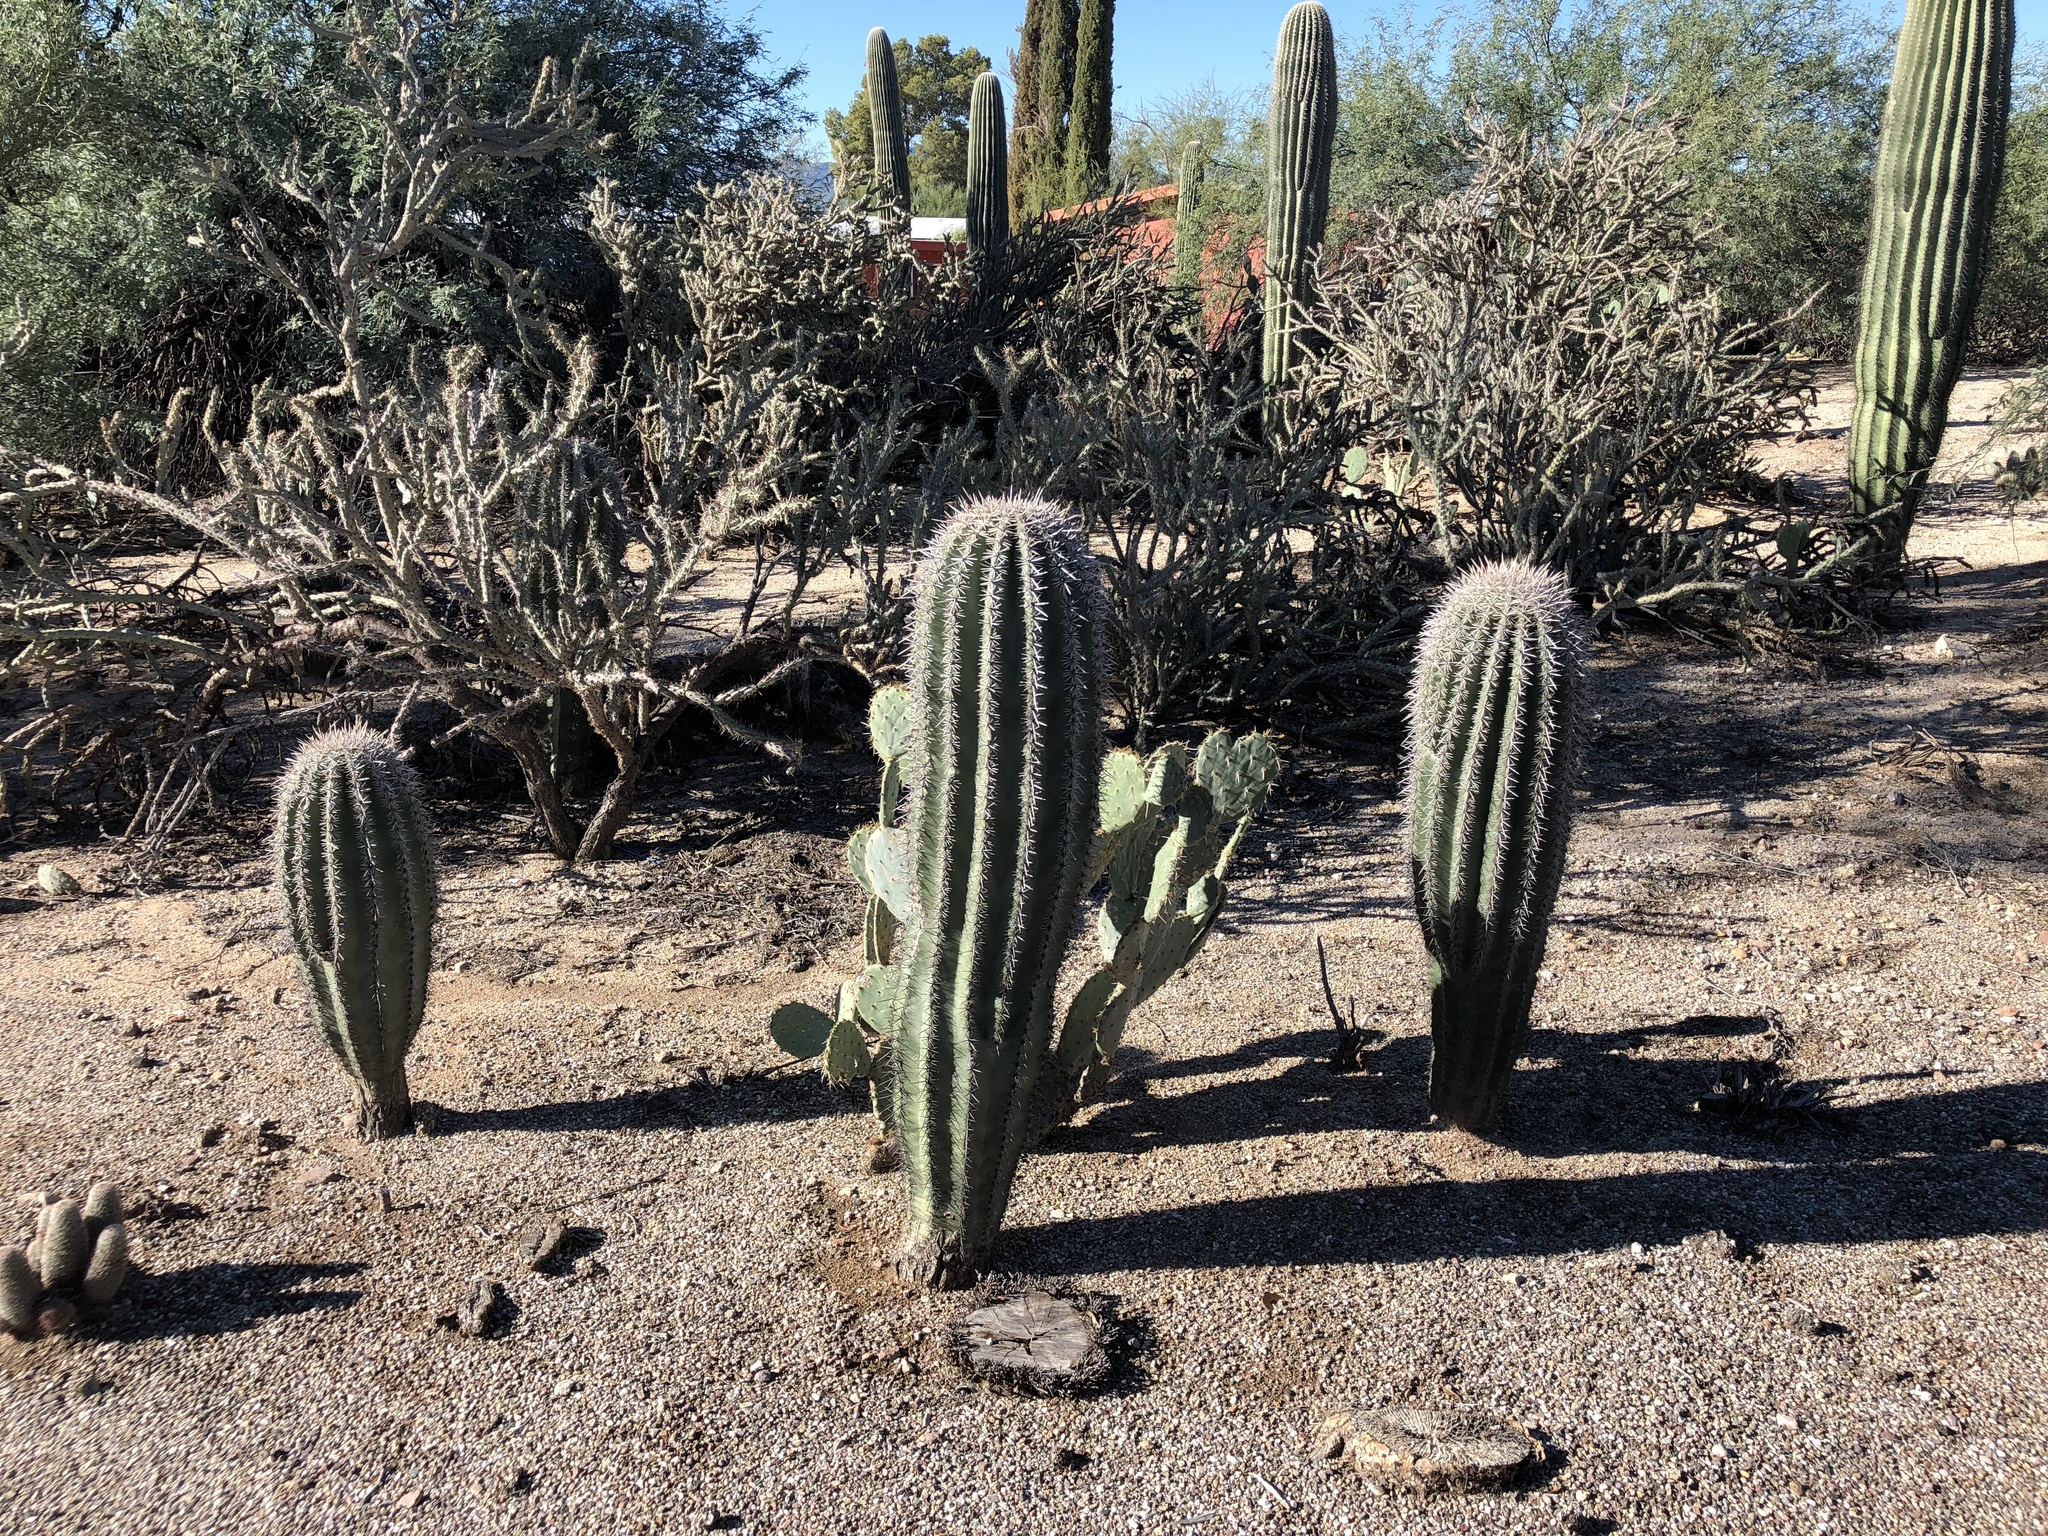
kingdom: Plantae
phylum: Tracheophyta
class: Magnoliopsida
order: Caryophyllales
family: Cactaceae
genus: Carnegiea
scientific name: Carnegiea gigantea
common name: Saguaro
